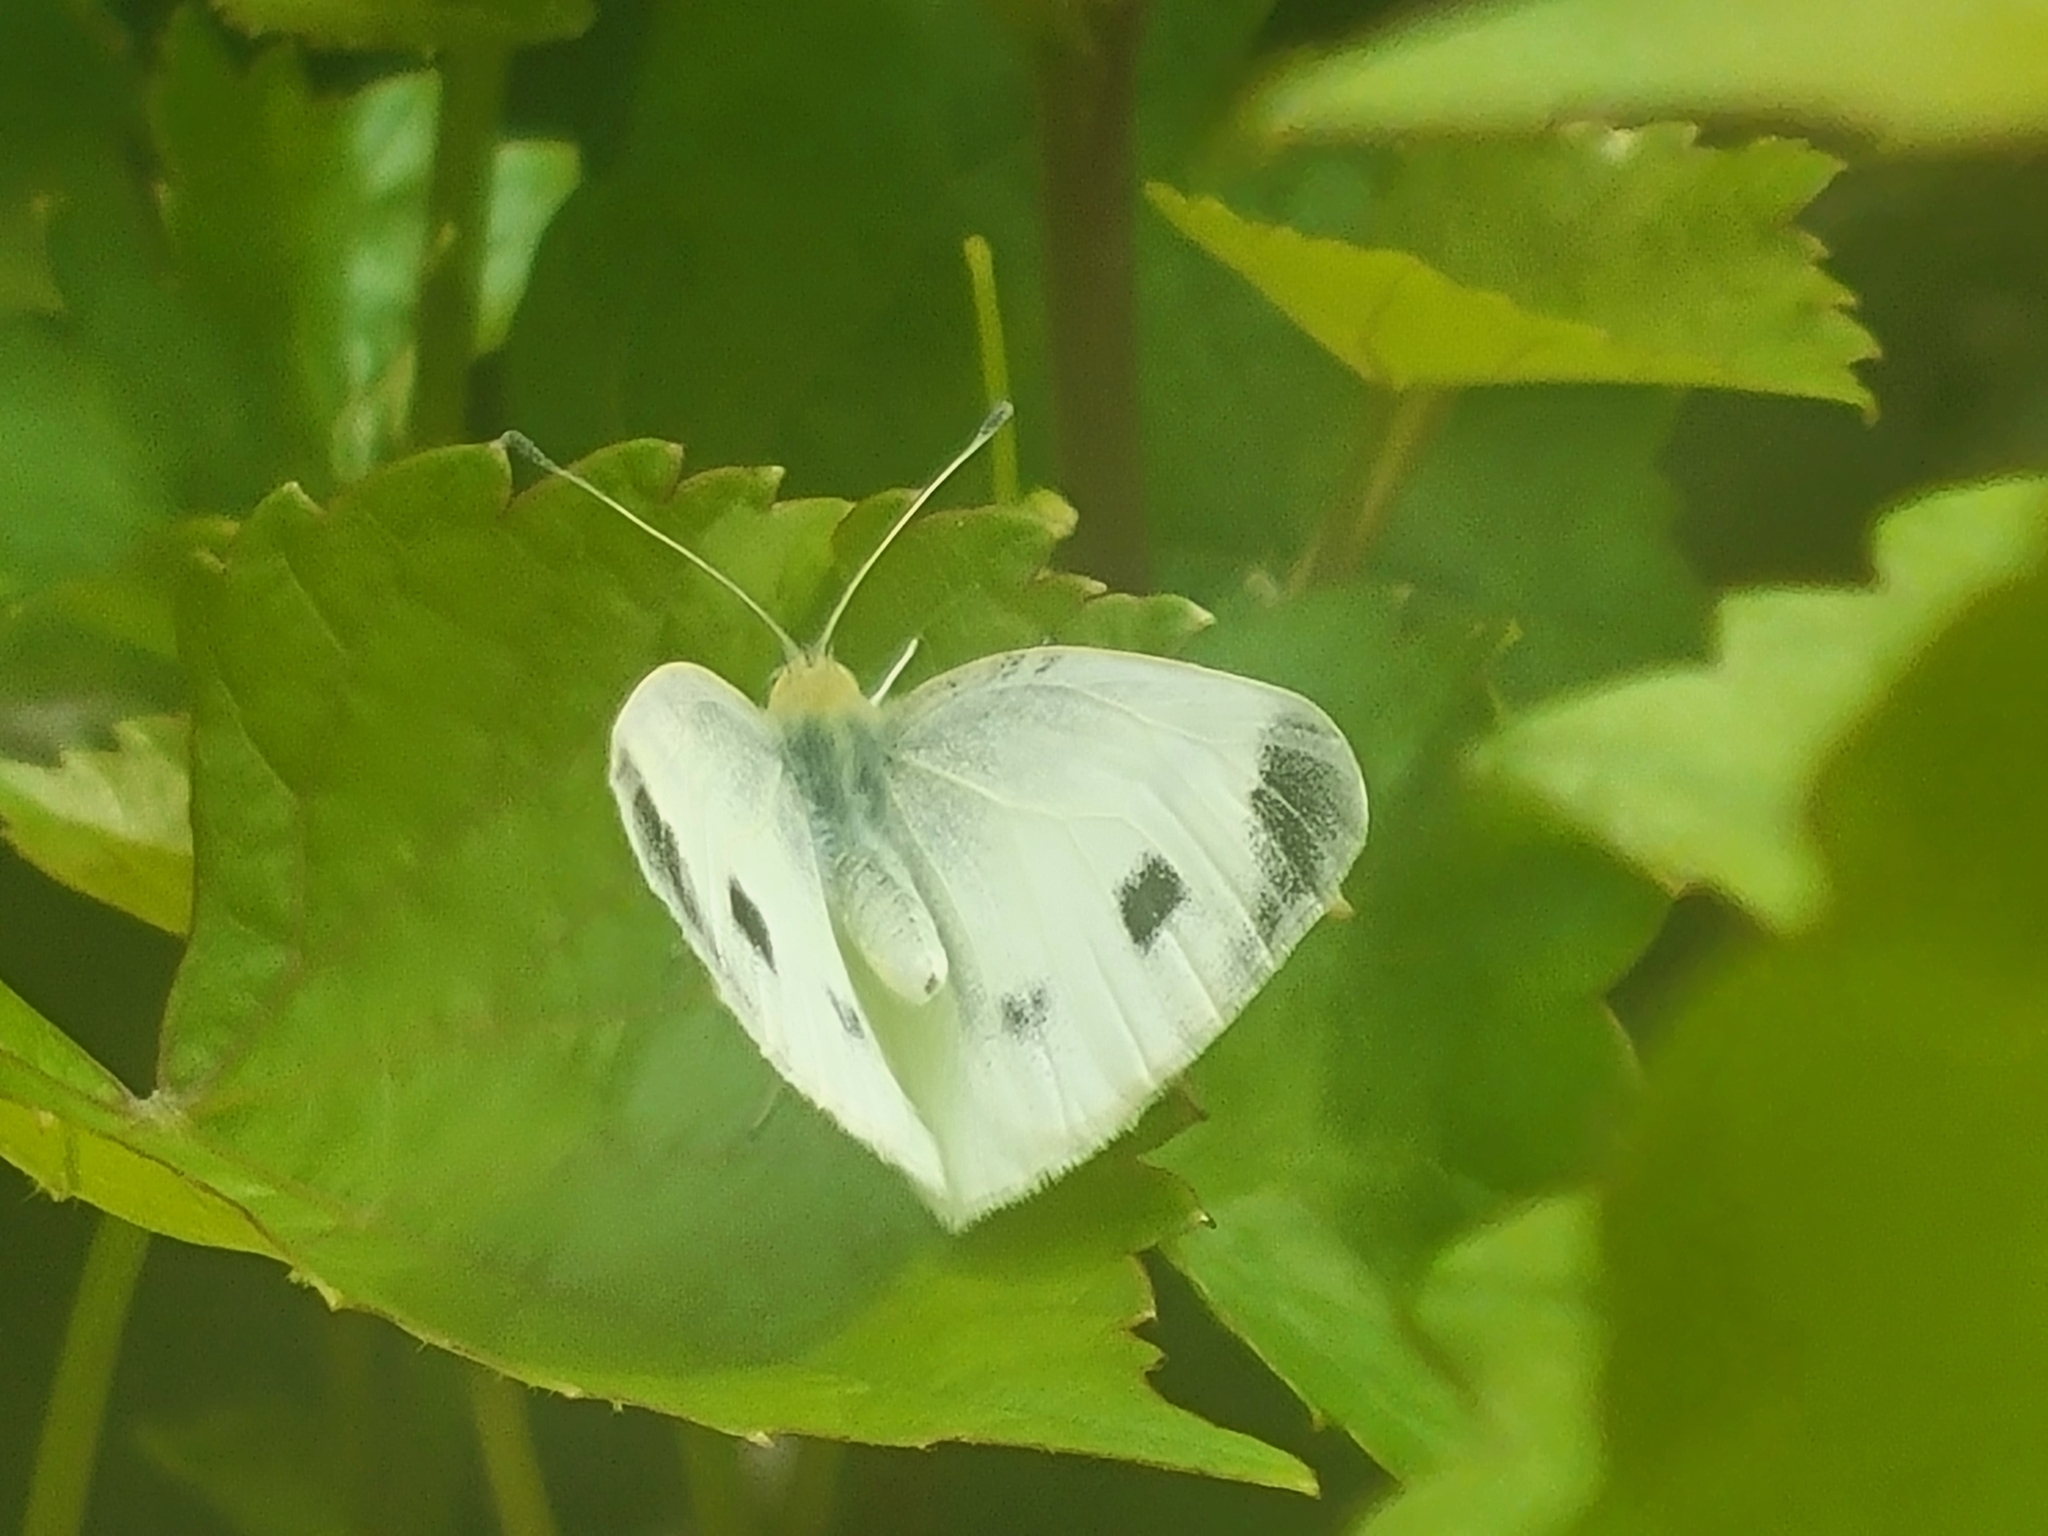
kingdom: Animalia
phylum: Arthropoda
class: Insecta
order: Lepidoptera
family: Pieridae
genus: Pieris
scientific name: Pieris mannii
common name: Southern small white
